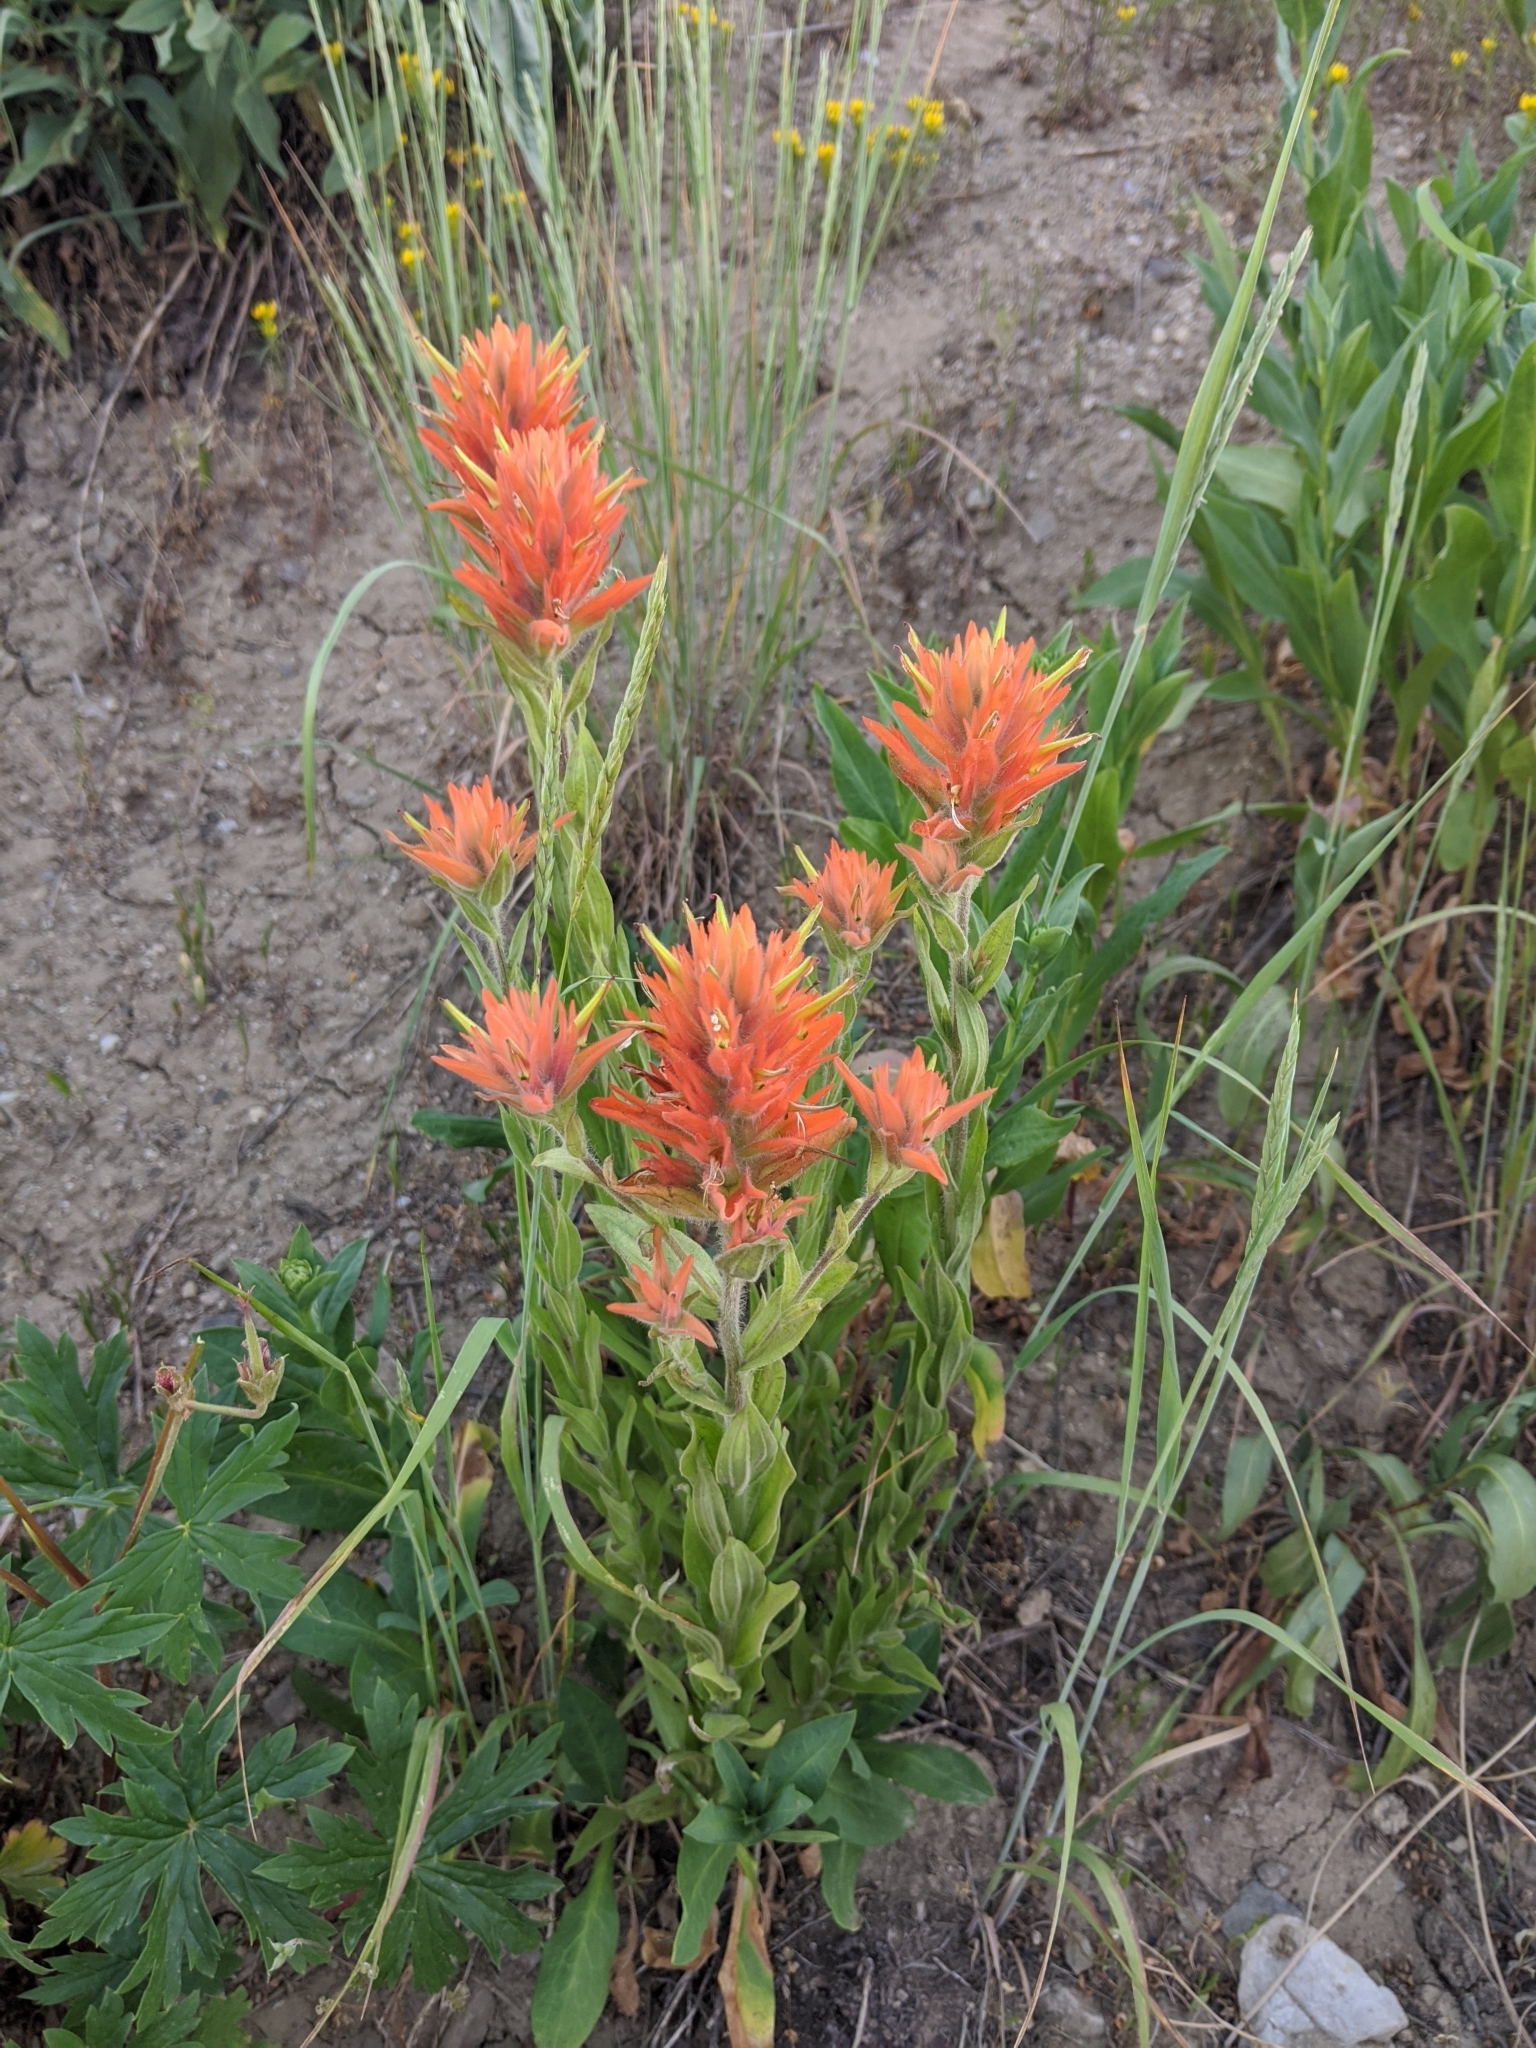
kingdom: Plantae
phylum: Tracheophyta
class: Magnoliopsida
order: Lamiales
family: Orobanchaceae
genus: Castilleja
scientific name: Castilleja miniata
